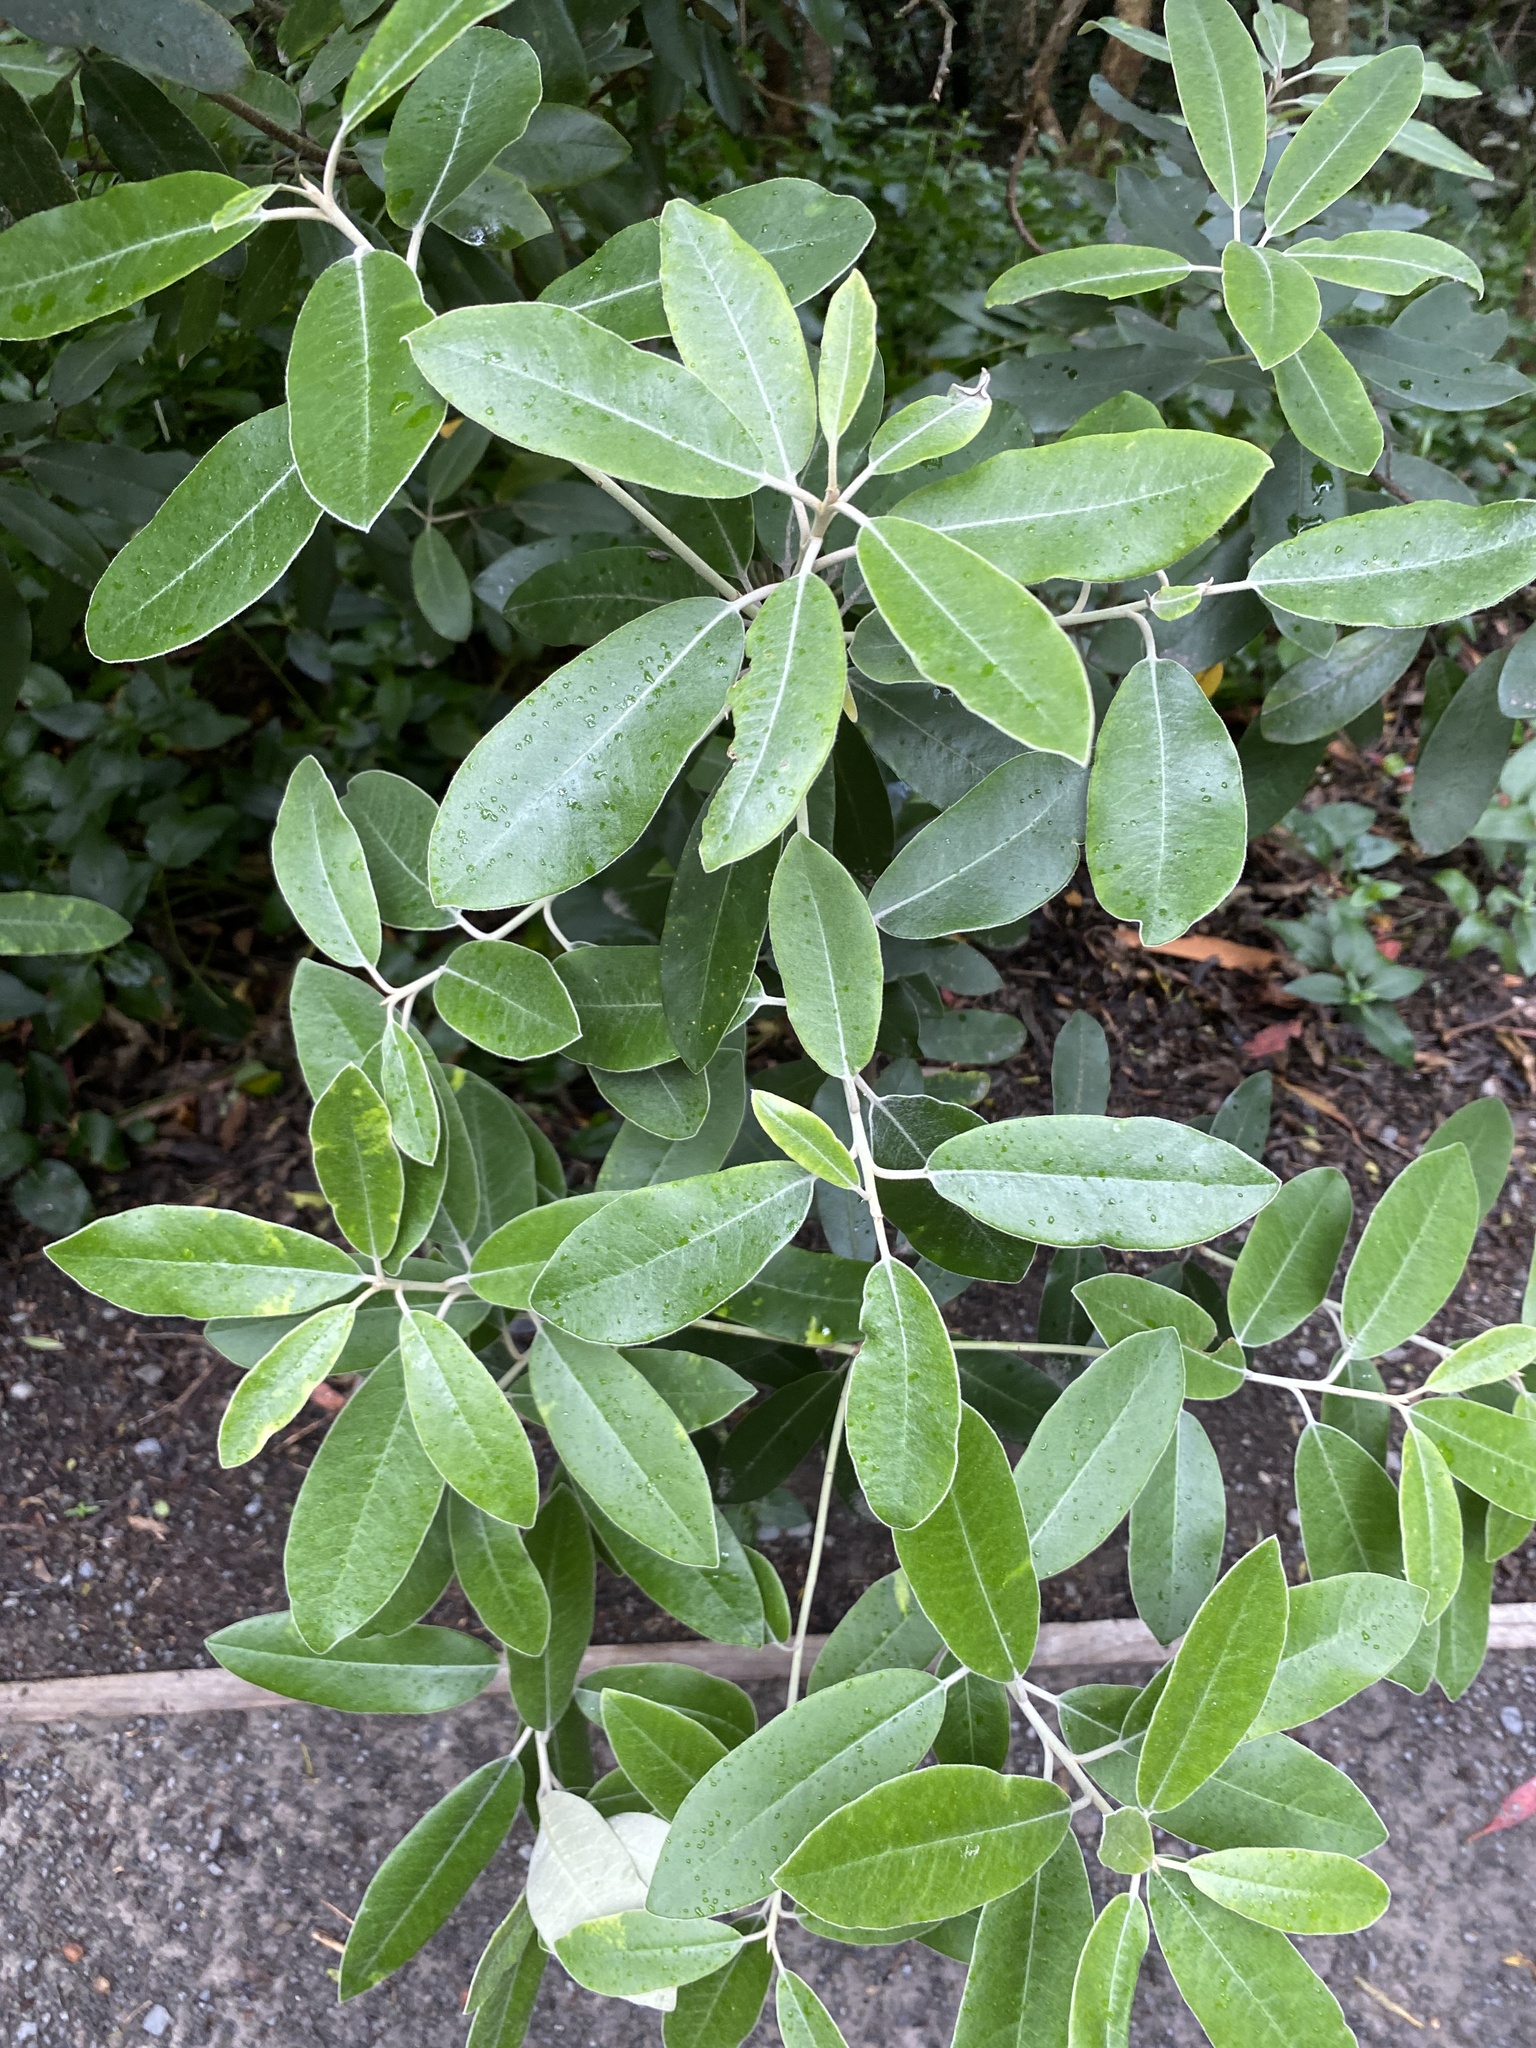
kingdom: Plantae
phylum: Tracheophyta
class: Magnoliopsida
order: Apiales
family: Pittosporaceae
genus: Pittosporum
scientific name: Pittosporum ralphii
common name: Ralph's desertwillow
